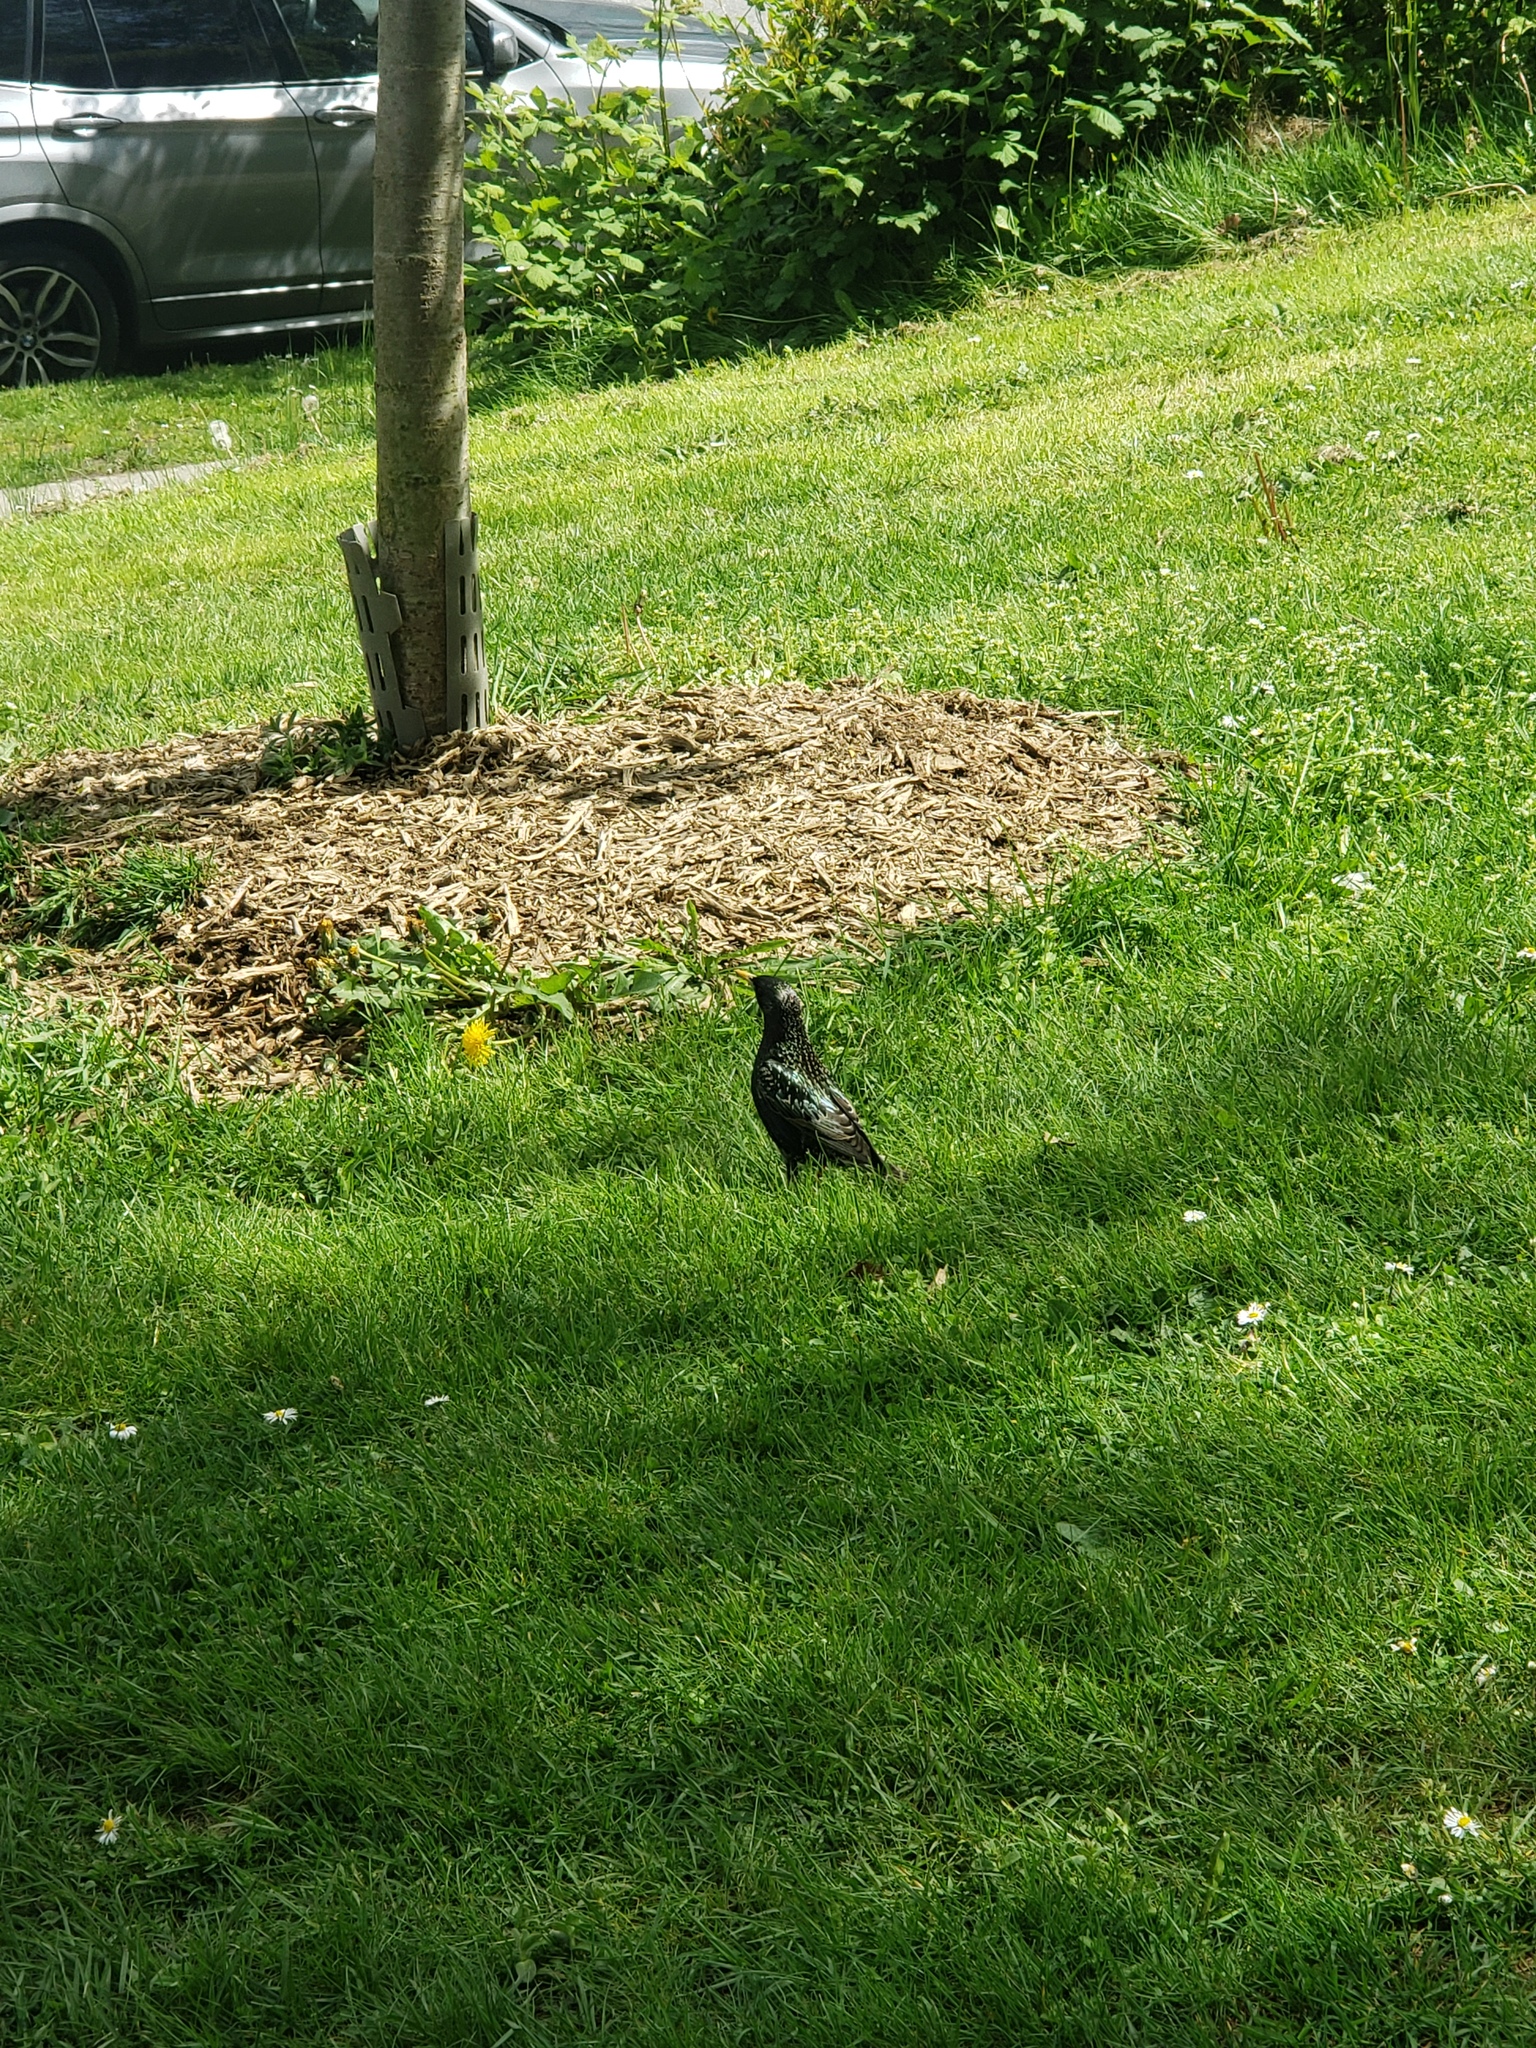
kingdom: Animalia
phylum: Chordata
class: Aves
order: Passeriformes
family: Sturnidae
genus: Sturnus
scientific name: Sturnus vulgaris
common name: Common starling
